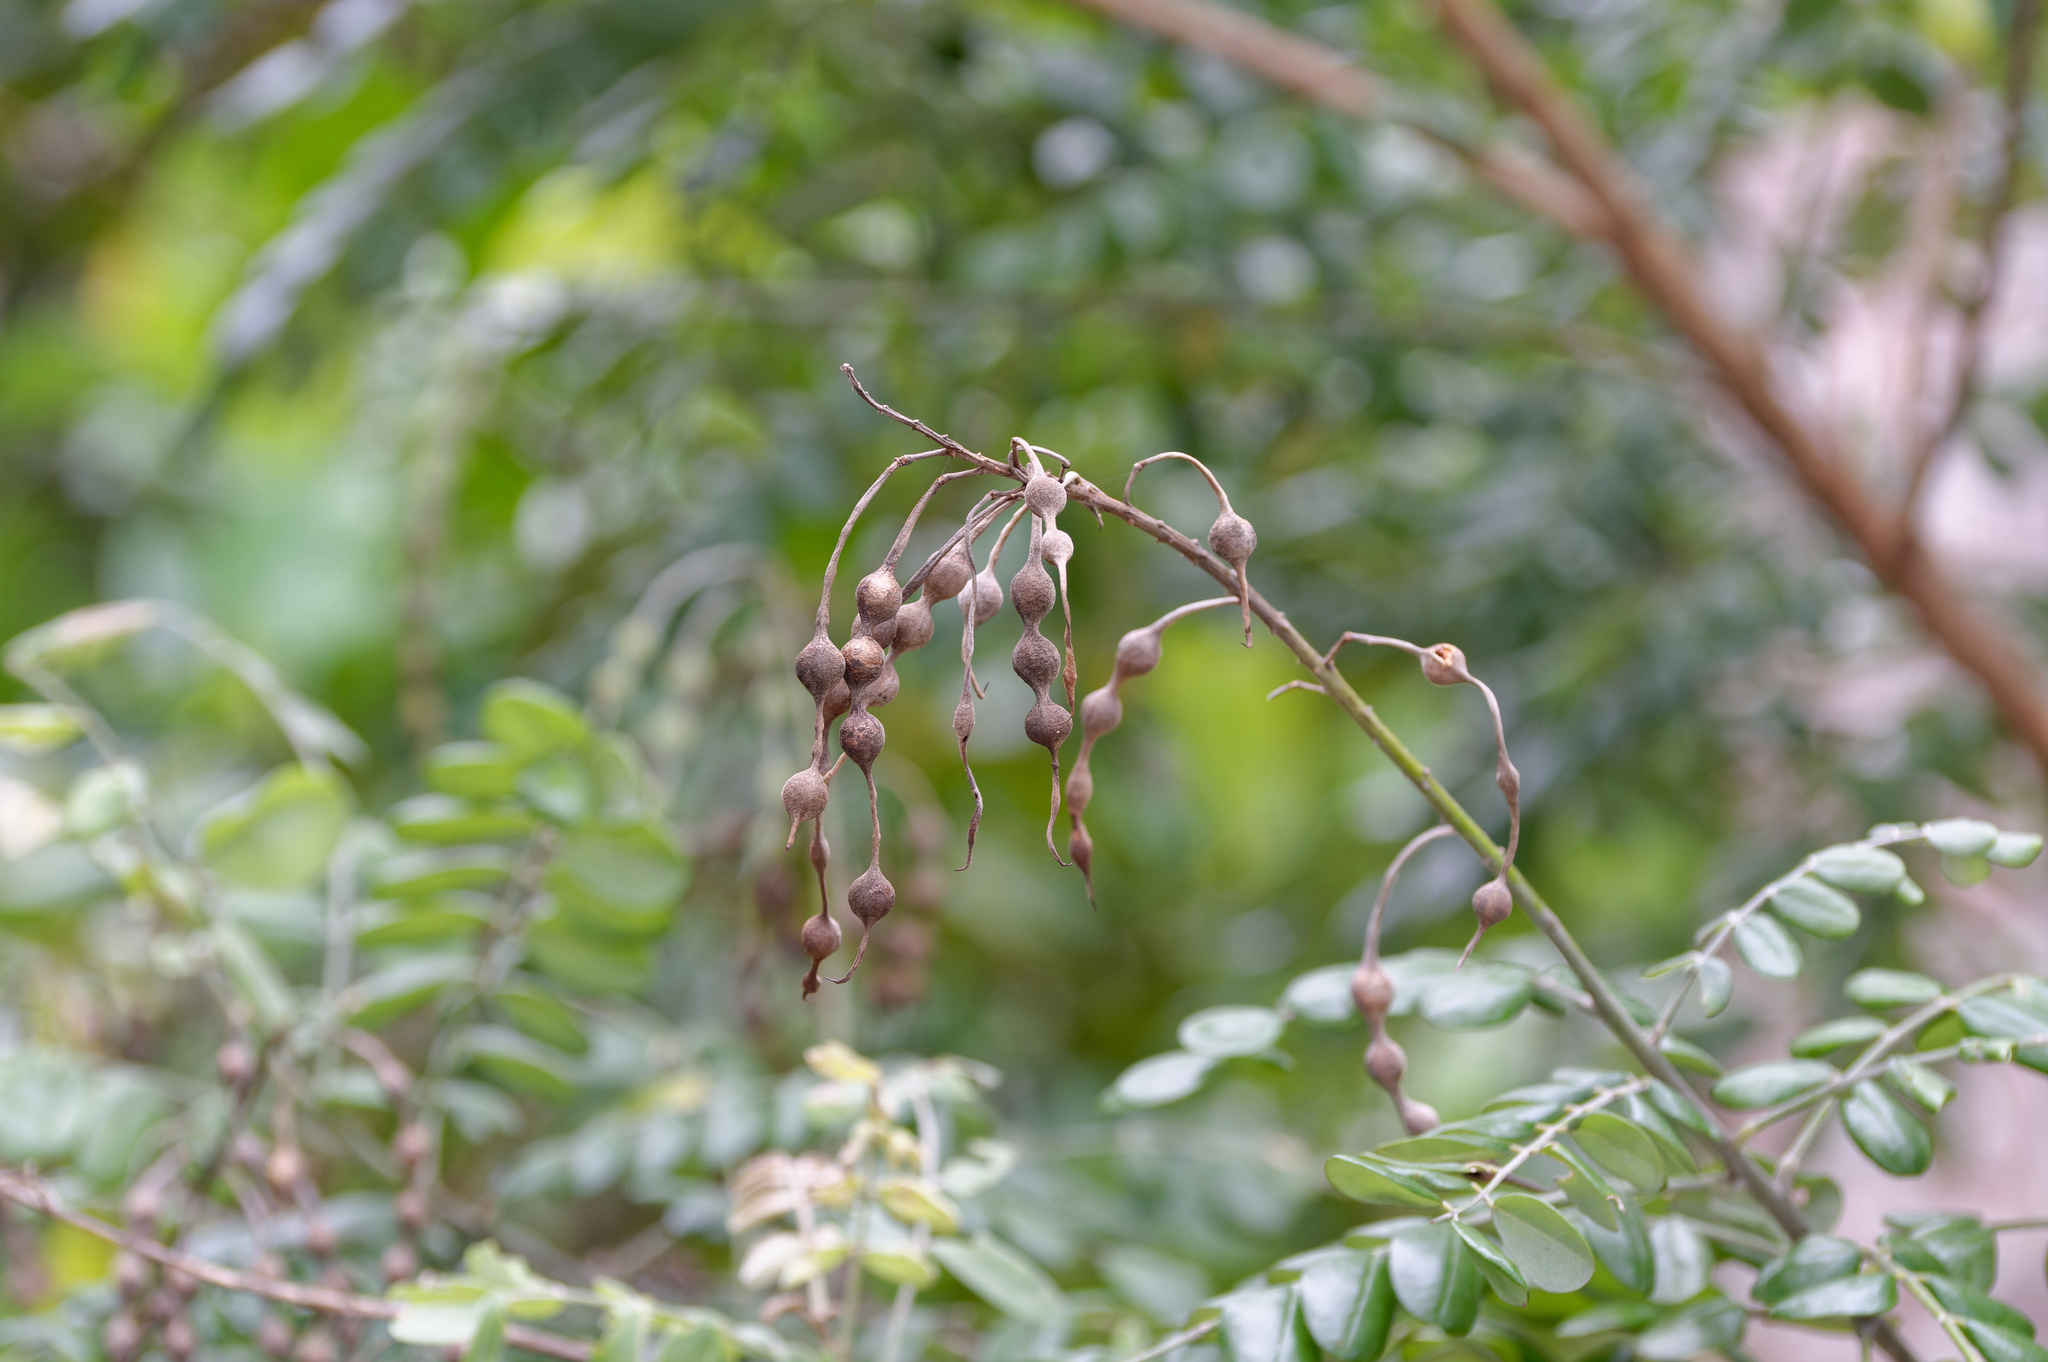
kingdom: Plantae
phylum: Tracheophyta
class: Magnoliopsida
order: Fabales
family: Fabaceae
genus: Sophora
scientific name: Sophora tomentosa
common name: Yellow necklacepod
